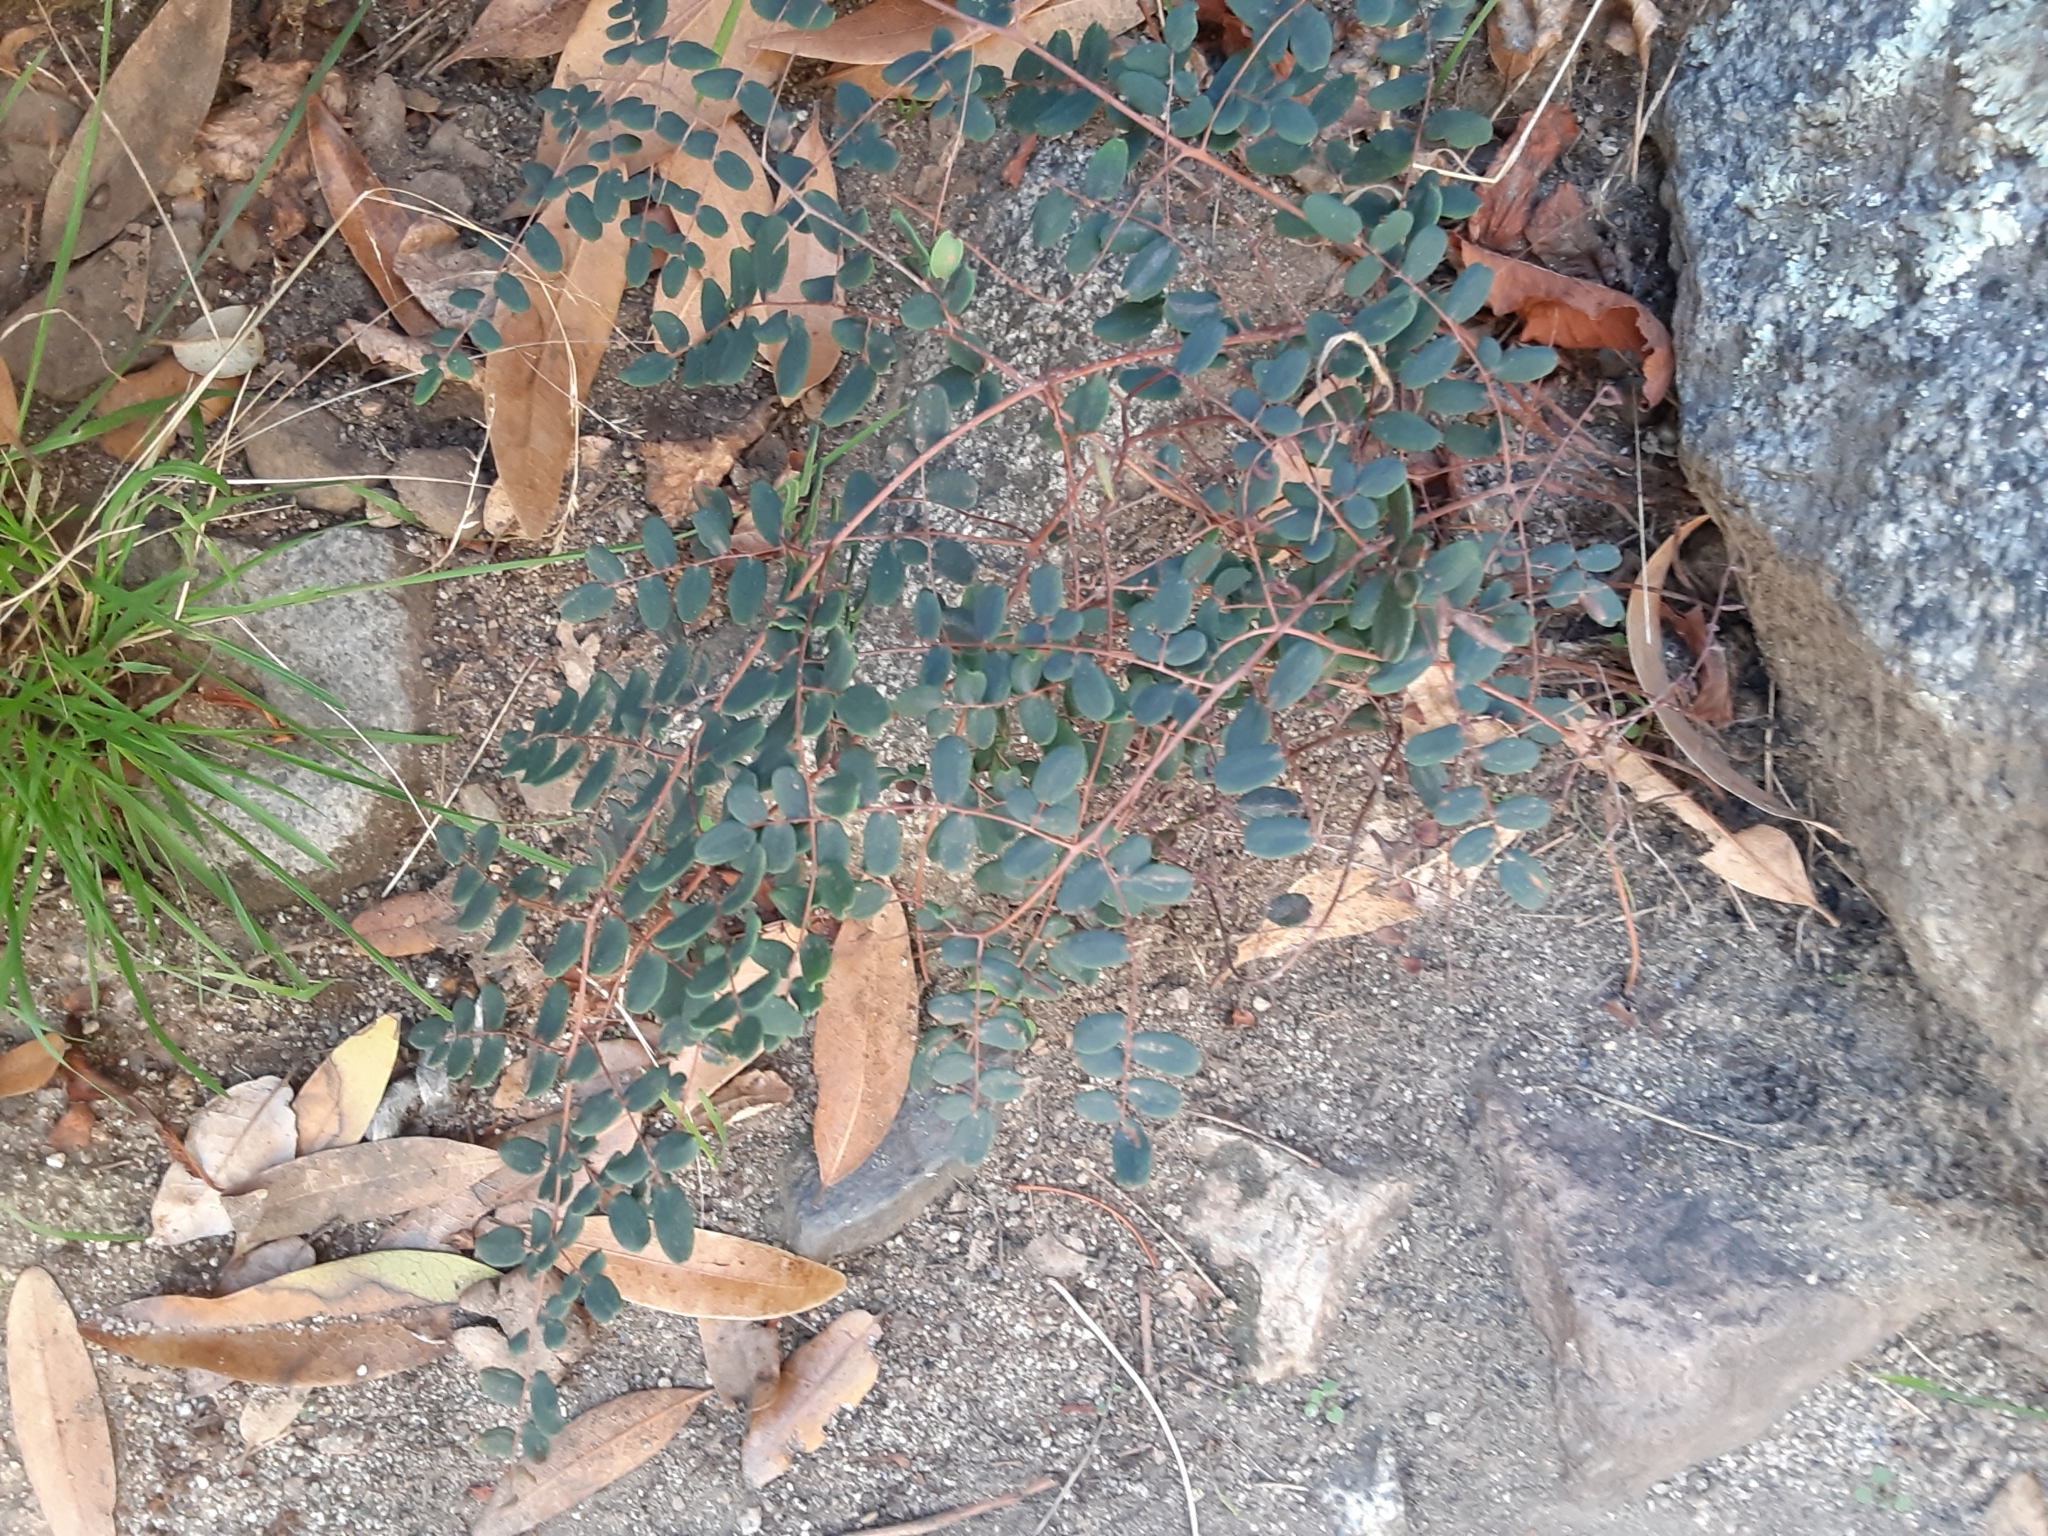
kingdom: Plantae
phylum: Tracheophyta
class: Polypodiopsida
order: Polypodiales
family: Pteridaceae
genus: Pellaea
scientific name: Pellaea andromedifolia
